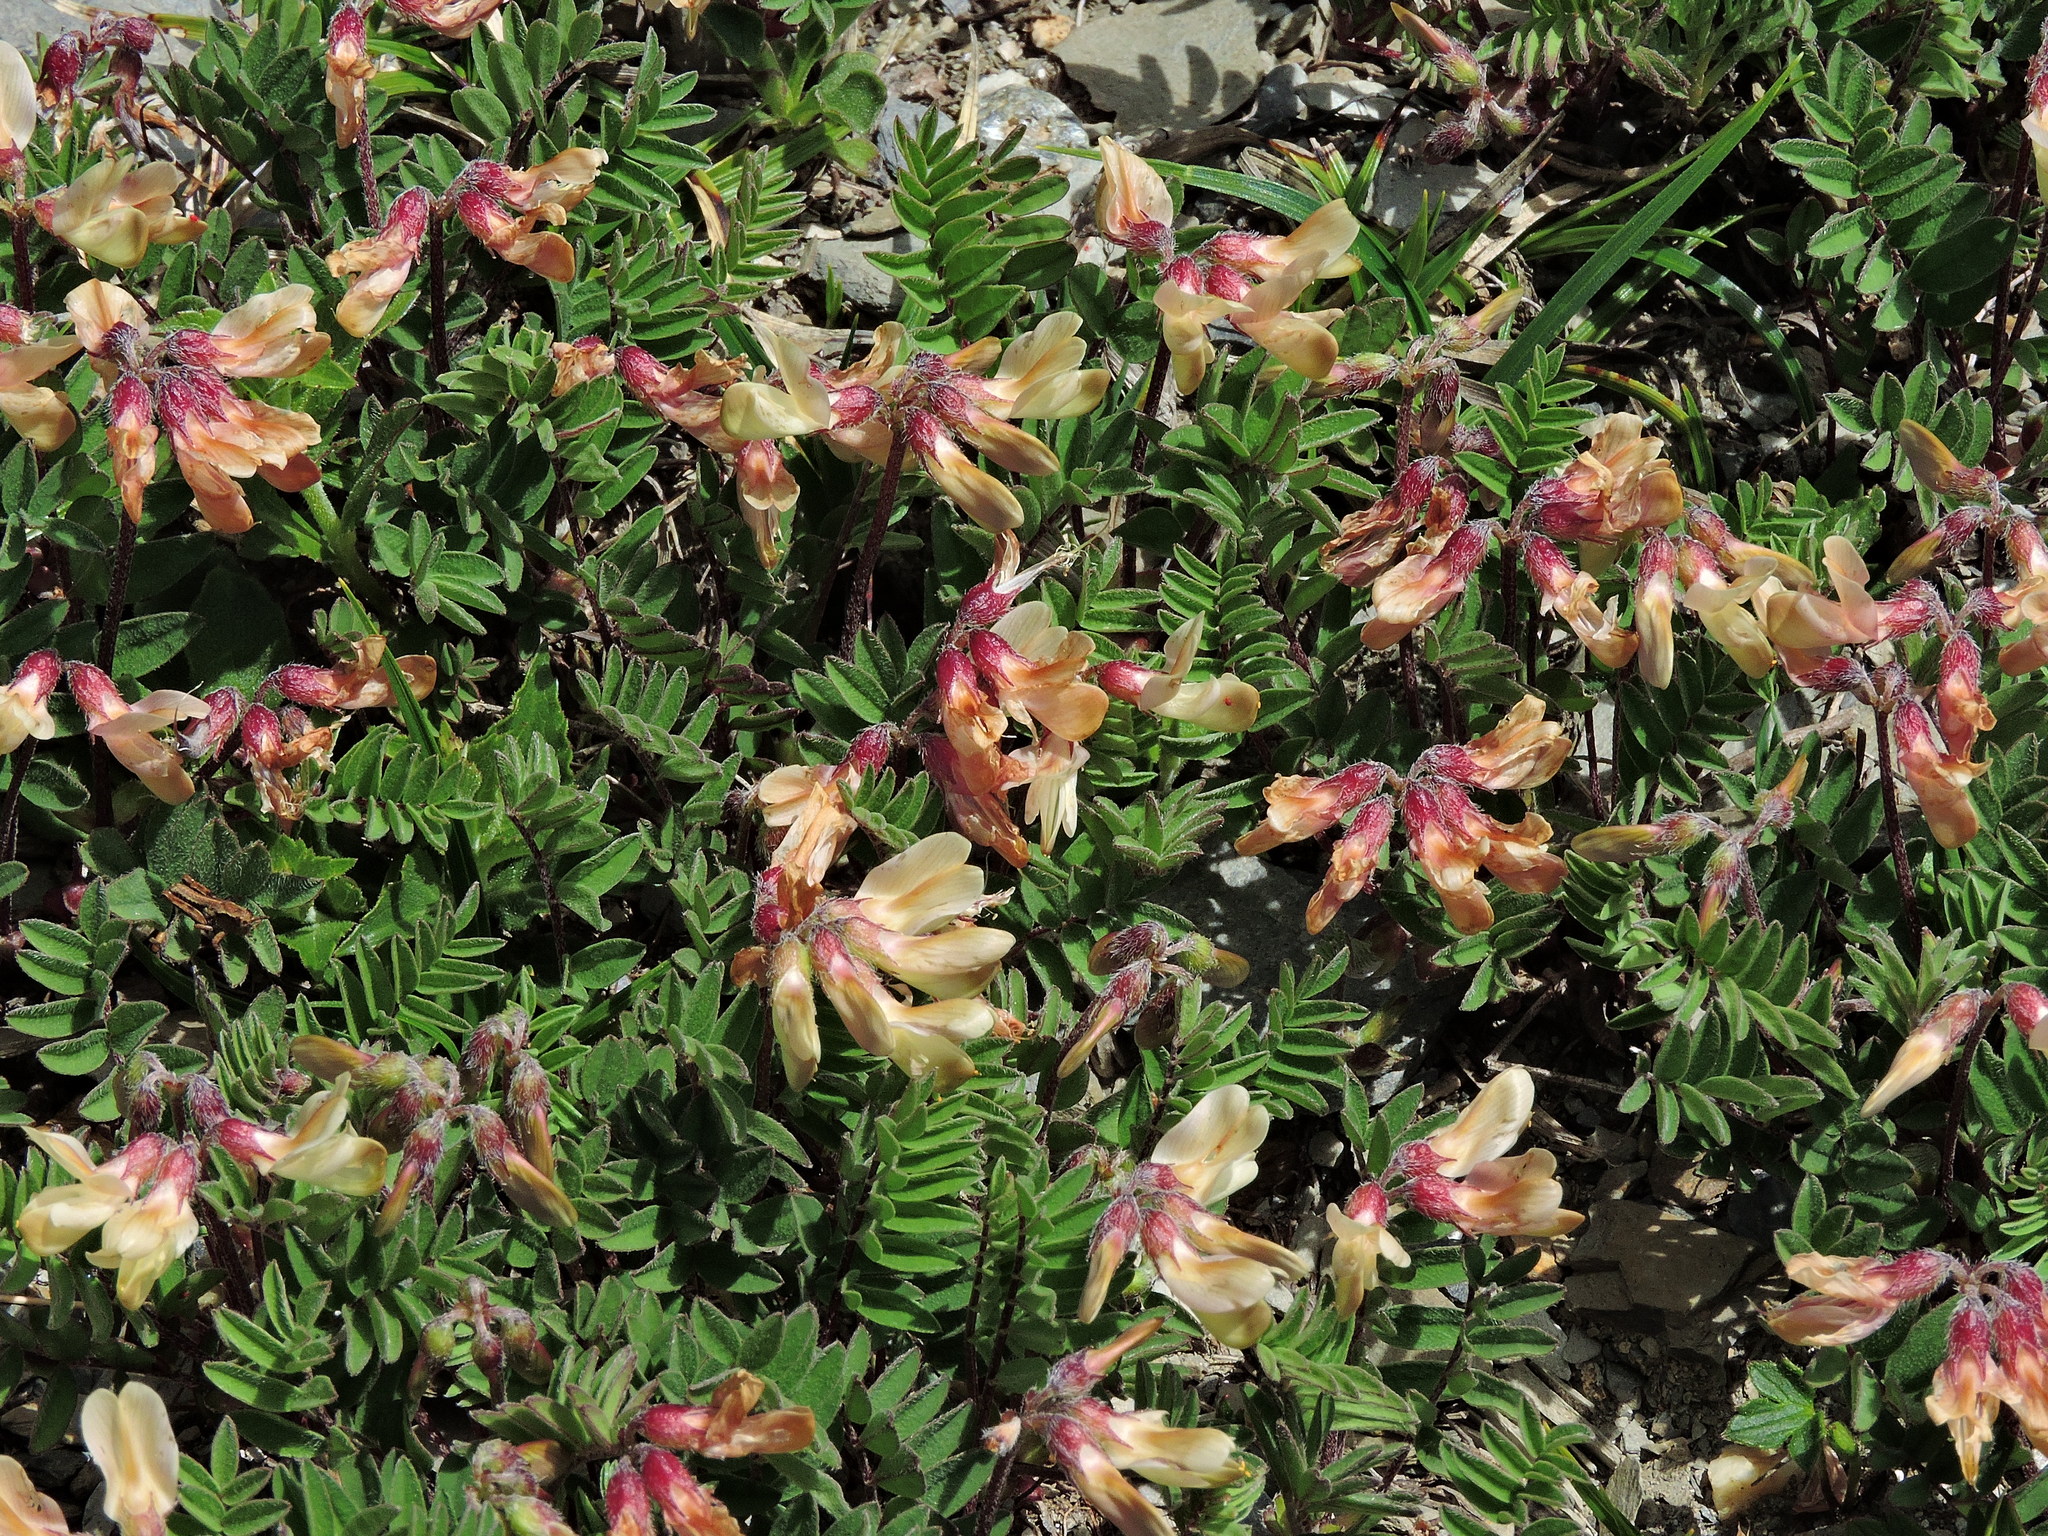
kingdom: Plantae
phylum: Tracheophyta
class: Magnoliopsida
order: Fabales
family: Fabaceae
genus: Astragalus
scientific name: Astragalus nankotaizanensis
